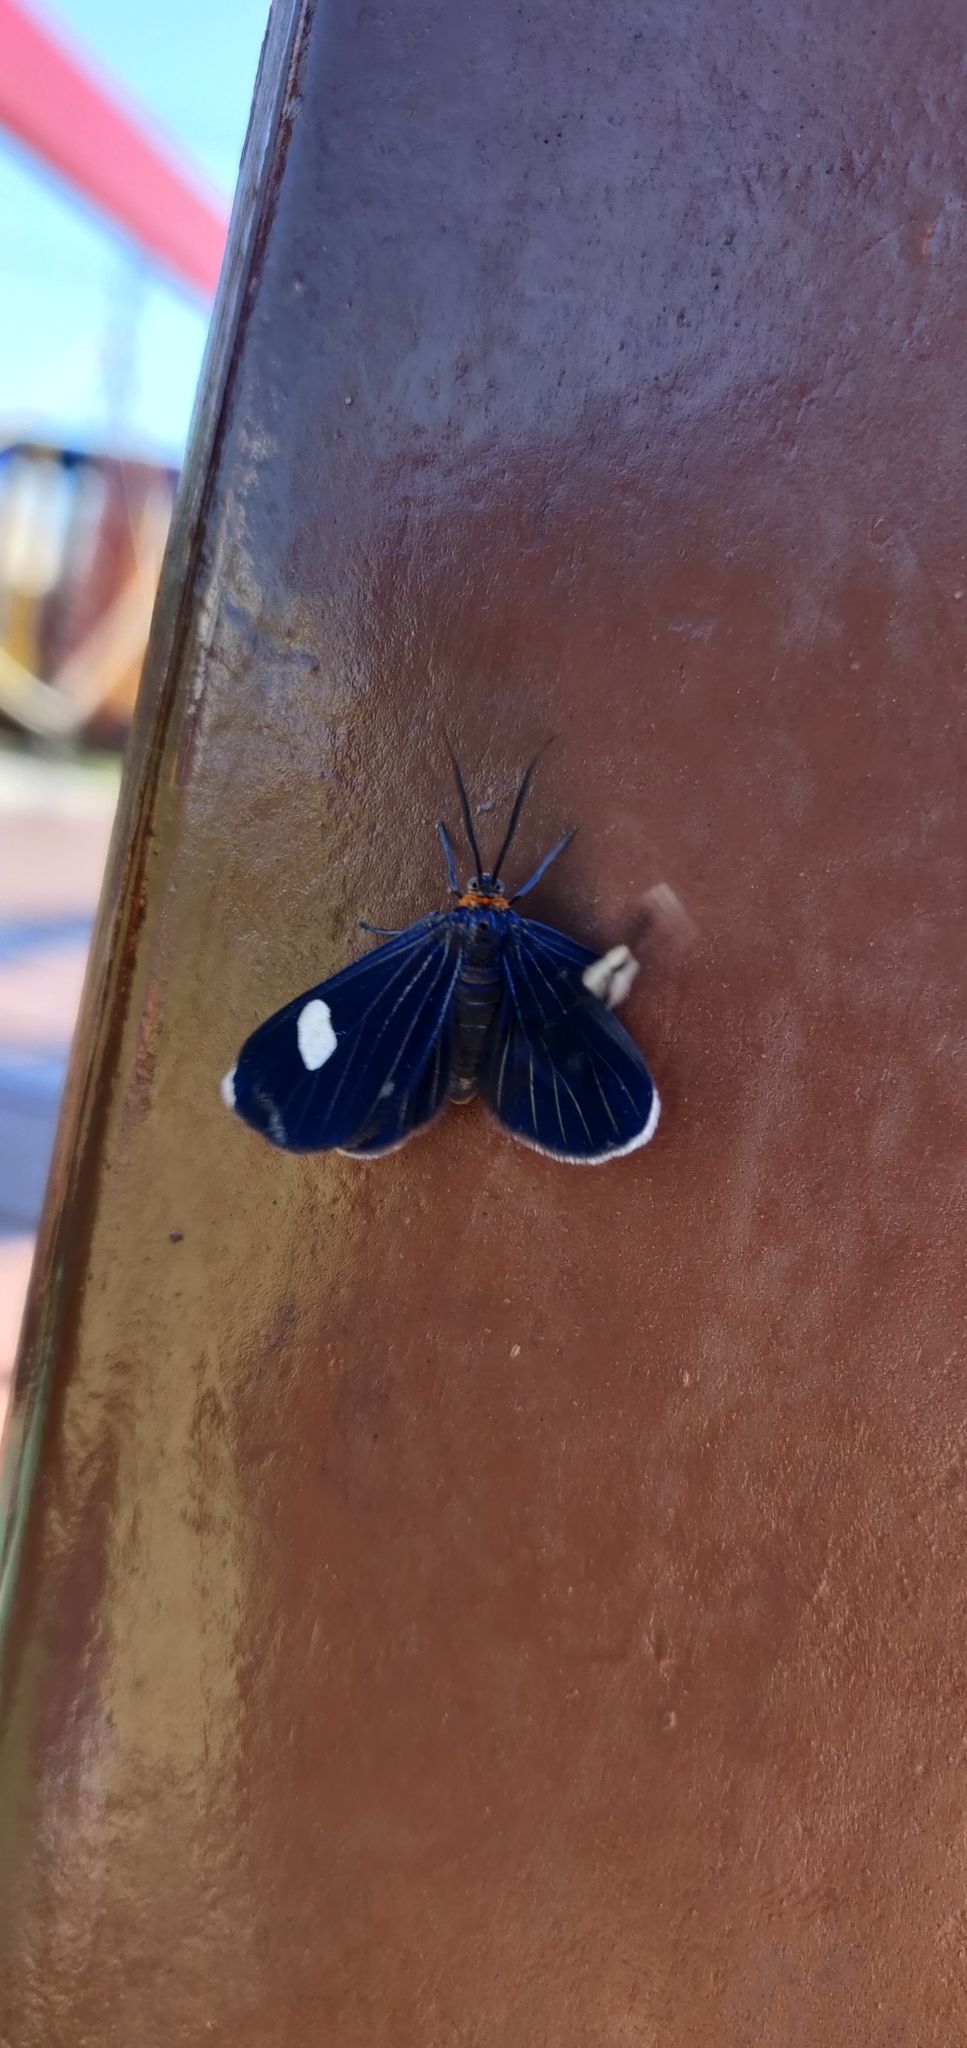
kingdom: Animalia
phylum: Arthropoda
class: Insecta
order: Lepidoptera
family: Geometridae
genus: Melanchroia
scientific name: Melanchroia aterea
